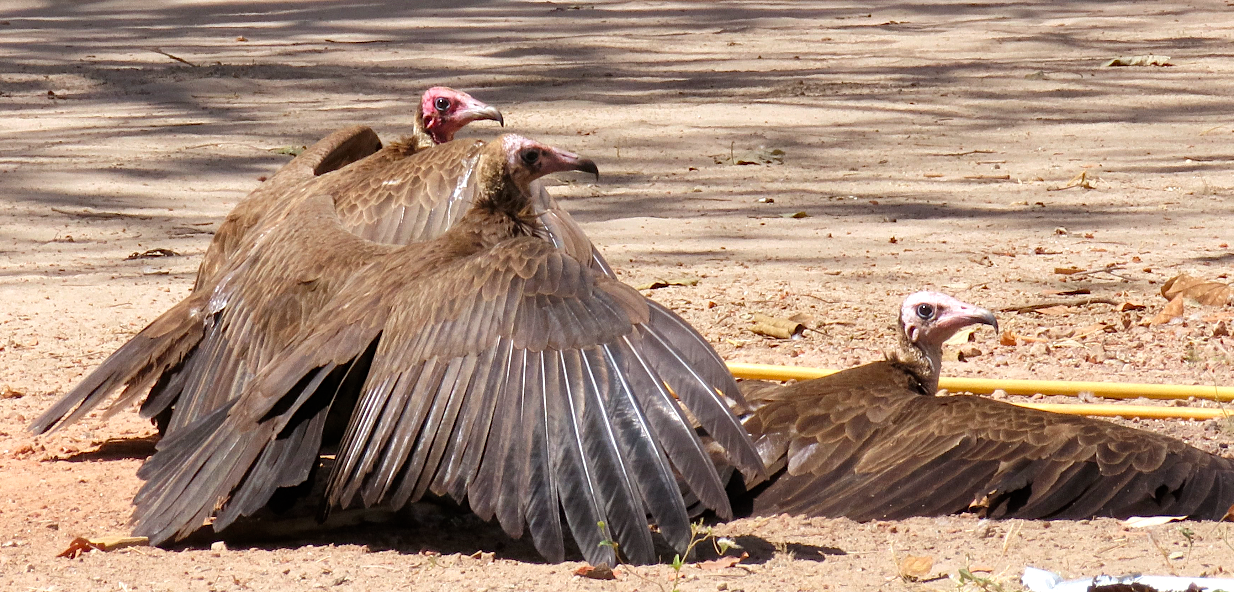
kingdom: Animalia
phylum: Chordata
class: Aves
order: Accipitriformes
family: Accipitridae
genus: Necrosyrtes
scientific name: Necrosyrtes monachus
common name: Hooded vulture
